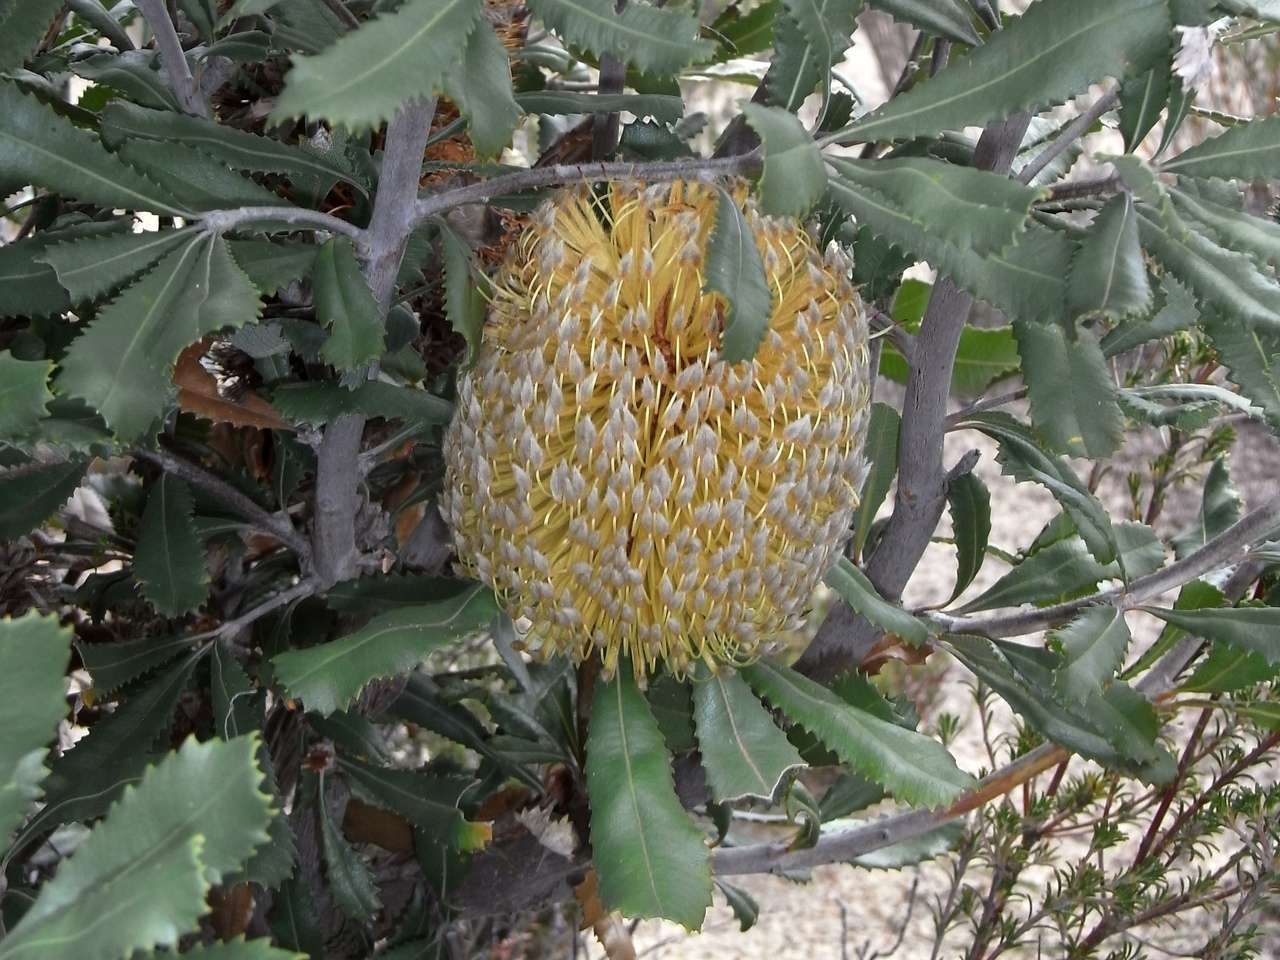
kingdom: Plantae
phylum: Tracheophyta
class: Magnoliopsida
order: Proteales
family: Proteaceae
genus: Banksia
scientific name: Banksia ornata
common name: Desert banksia
